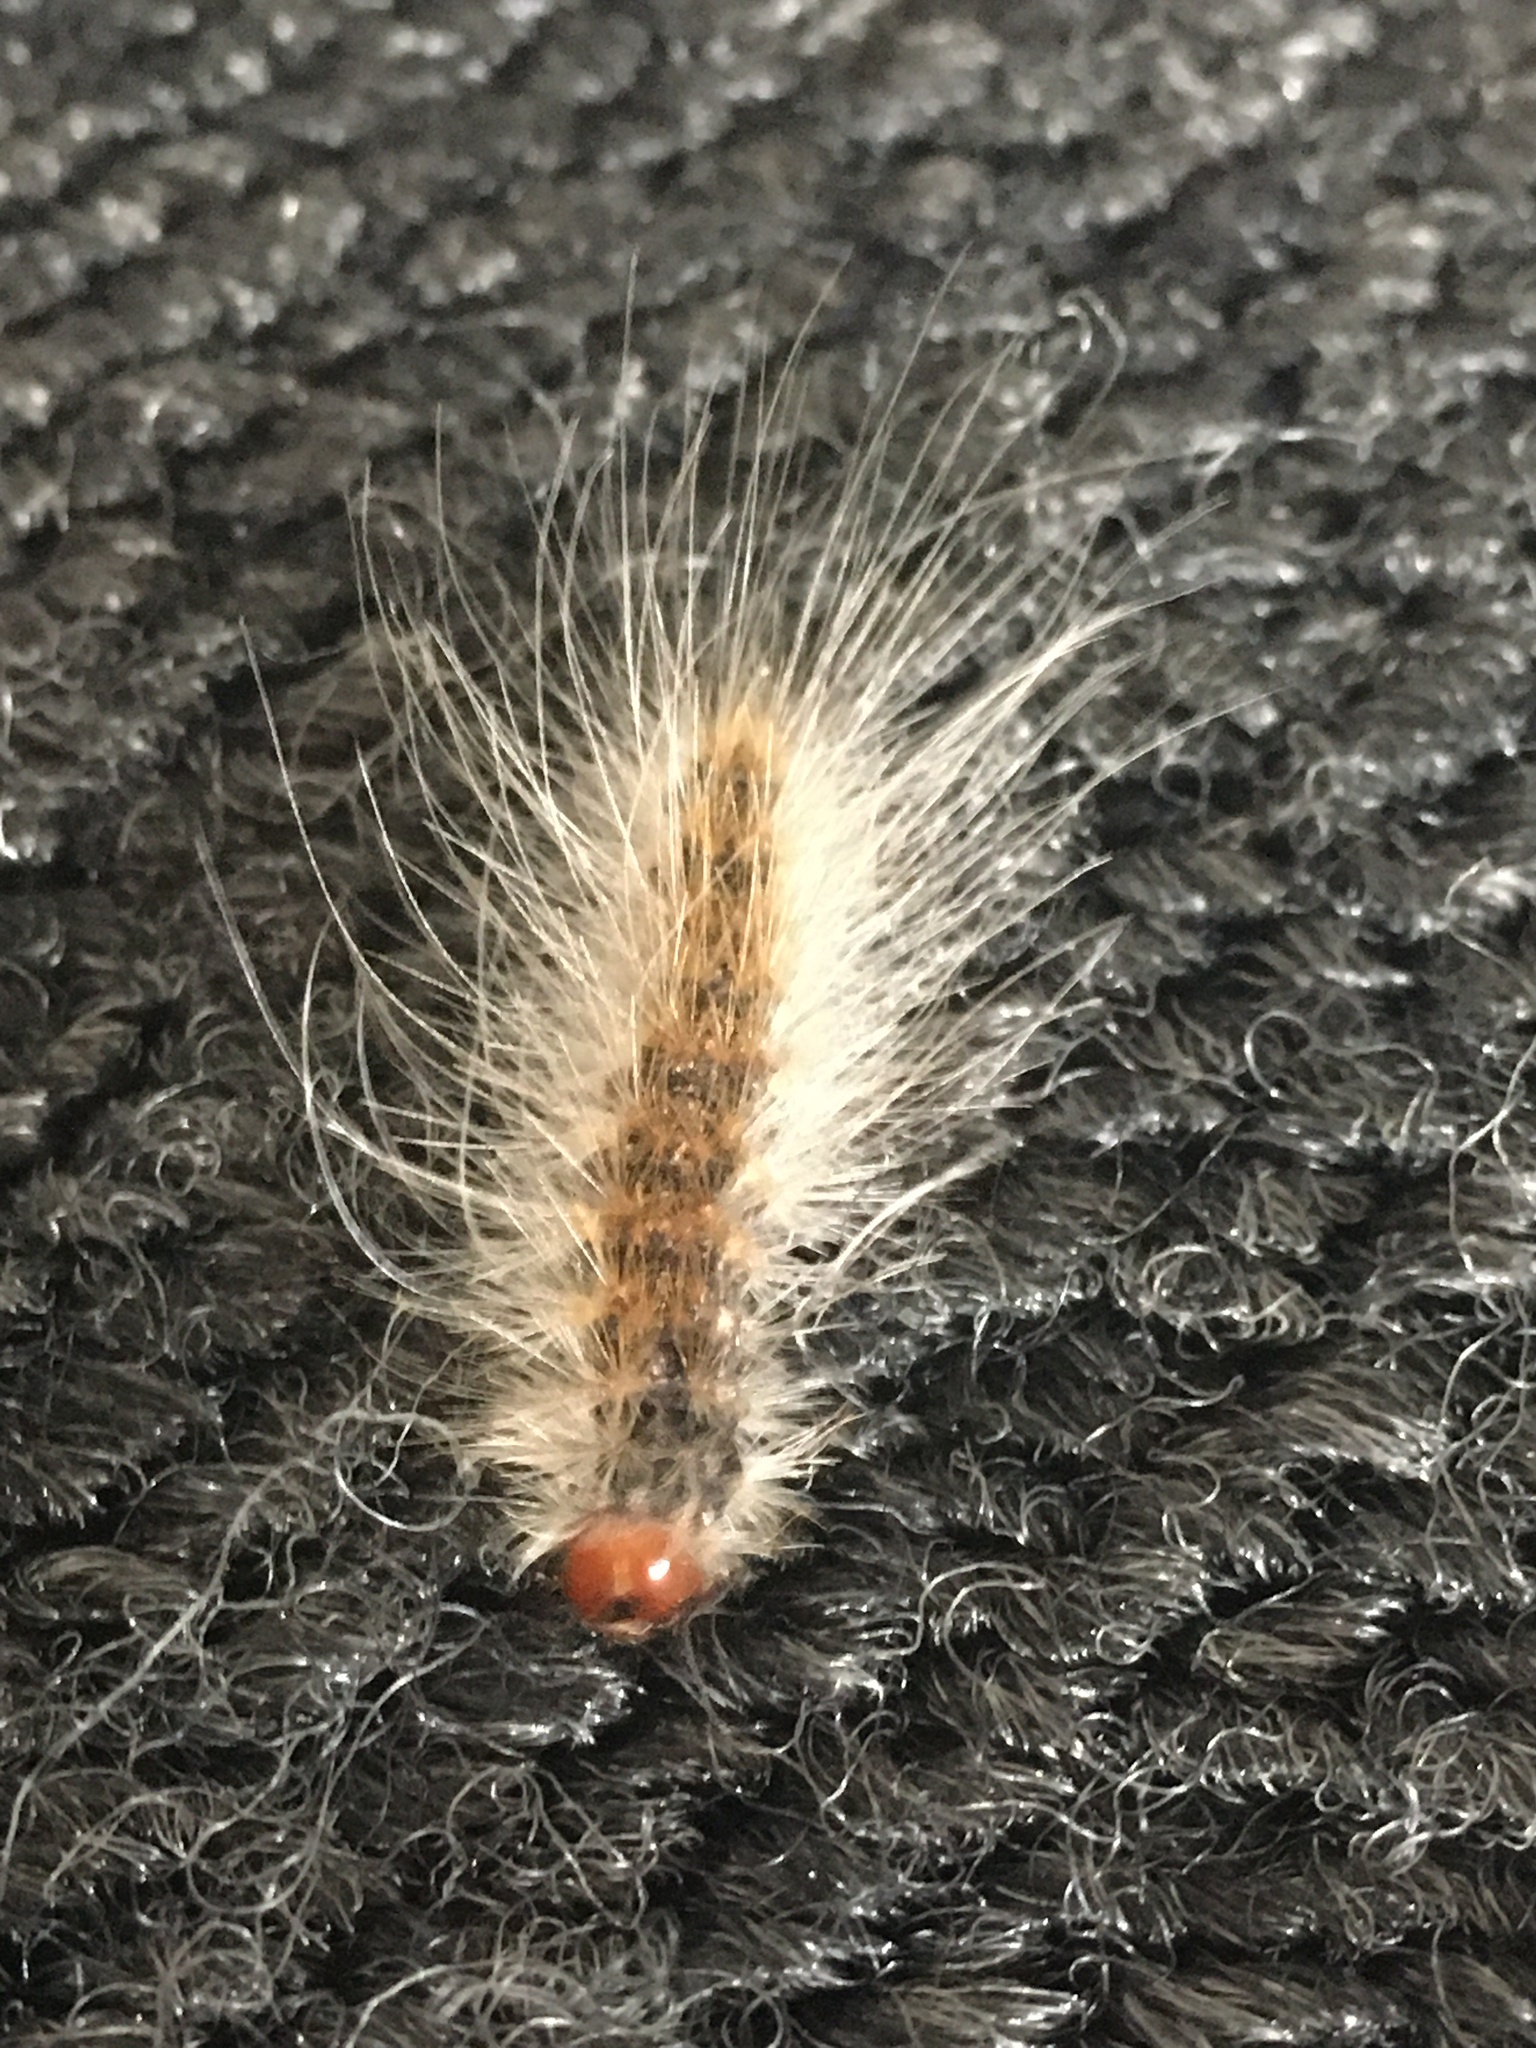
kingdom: Animalia
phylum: Arthropoda
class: Insecta
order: Lepidoptera
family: Erebidae
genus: Hyphantria
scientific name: Hyphantria cunea
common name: American white moth
